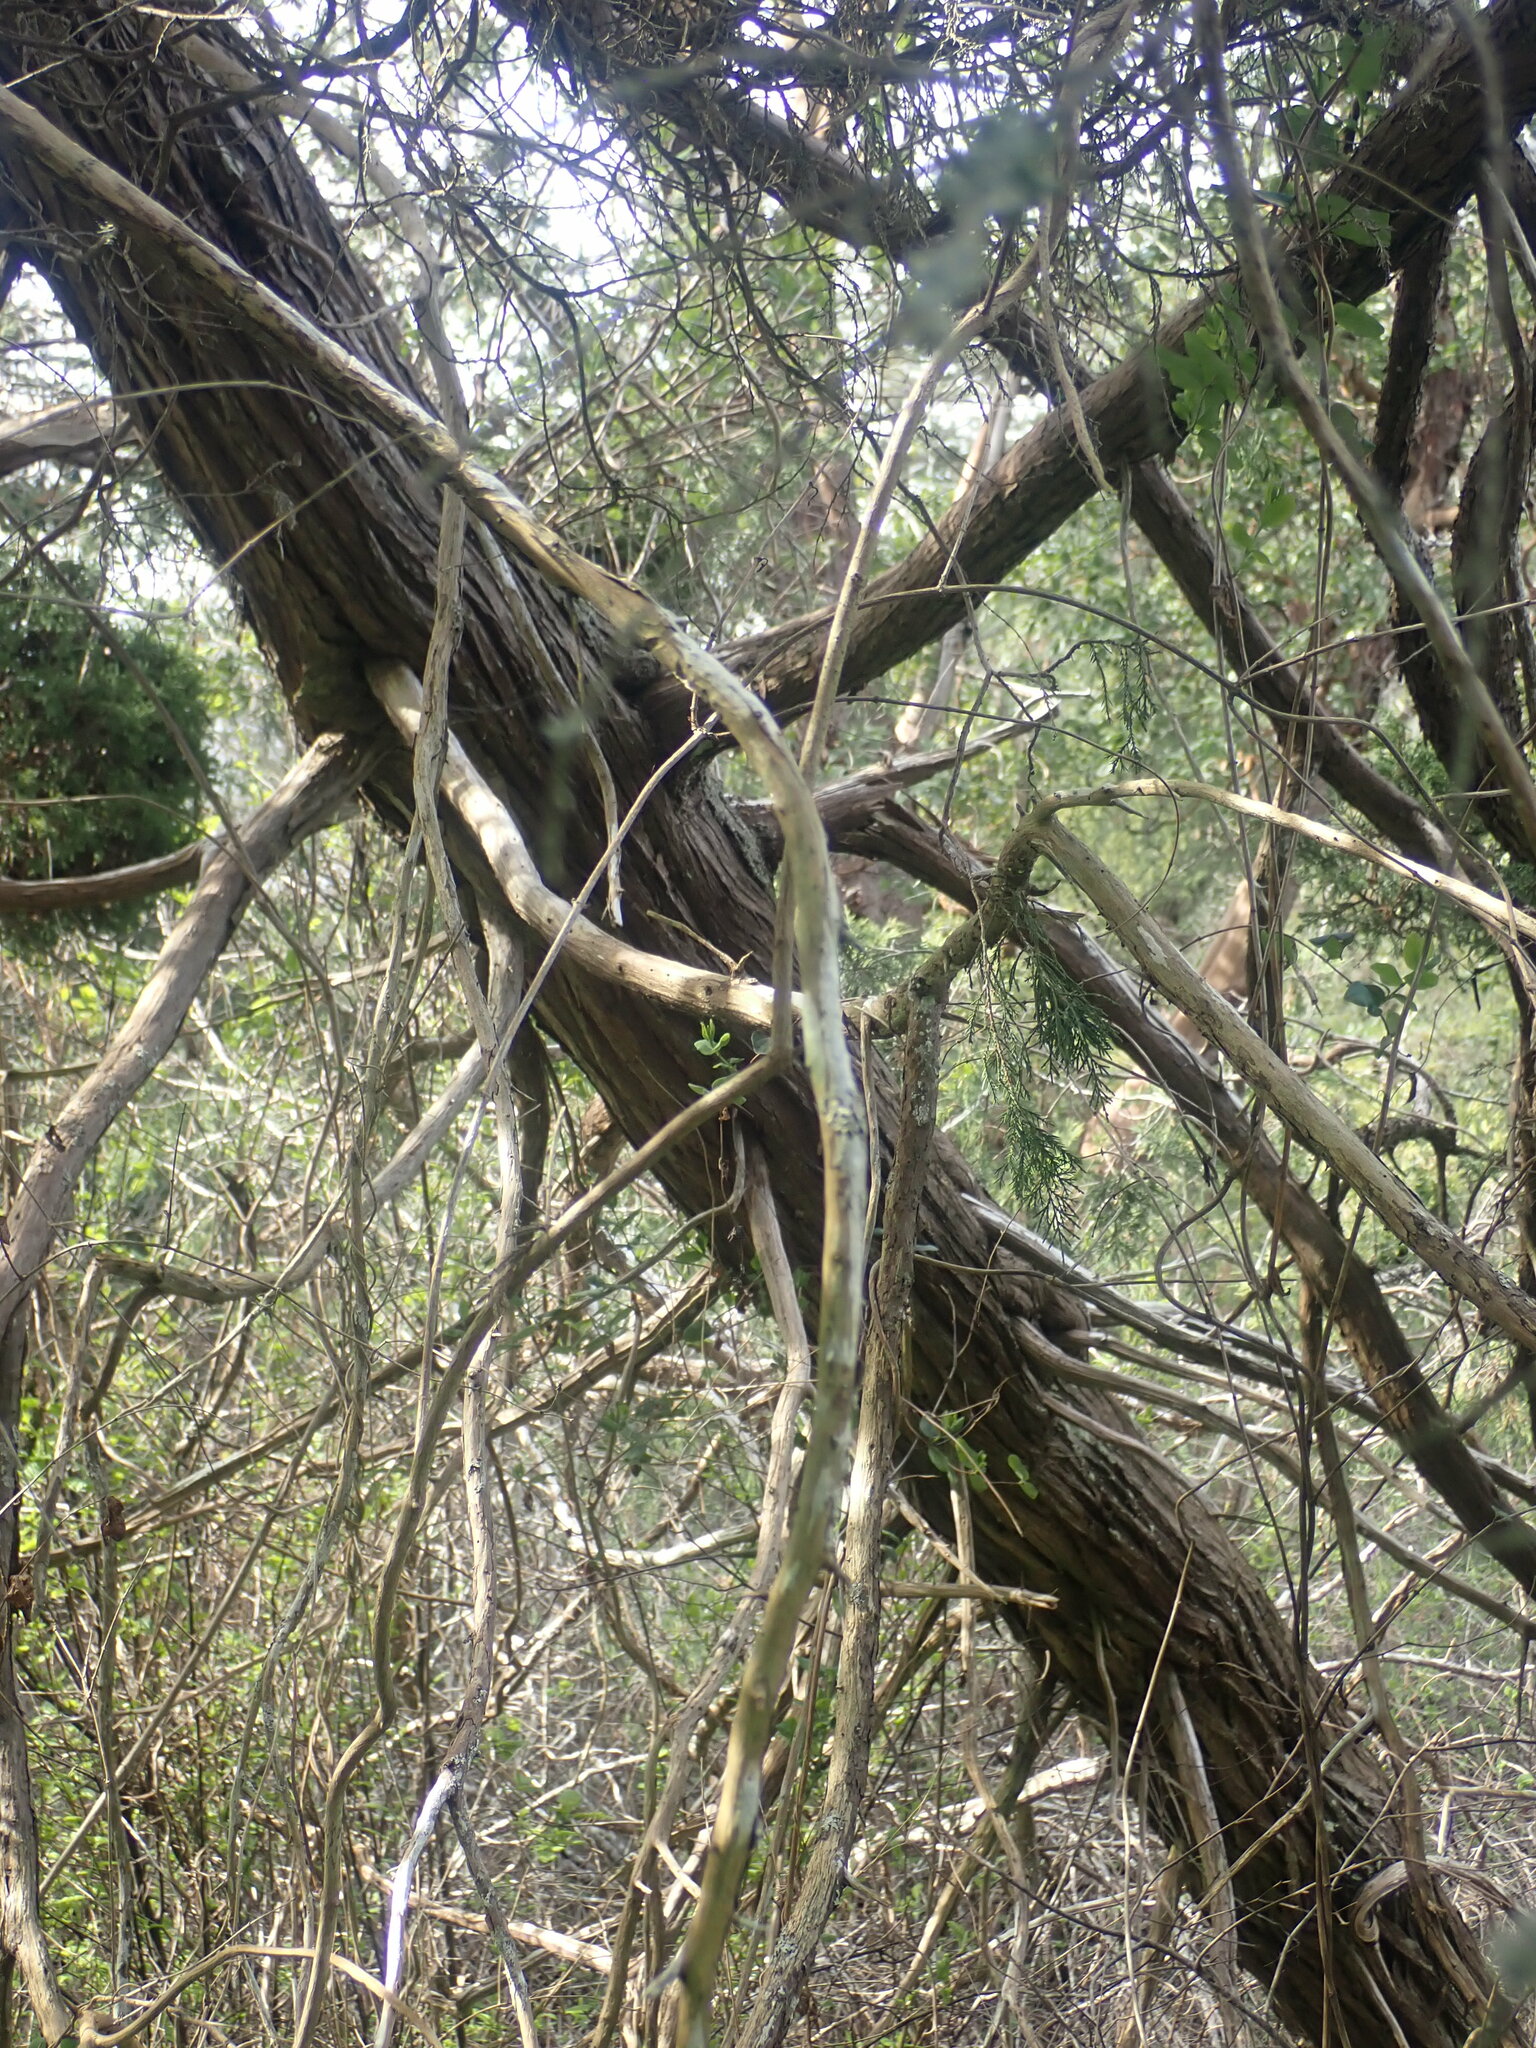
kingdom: Plantae
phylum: Tracheophyta
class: Pinopsida
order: Pinales
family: Cupressaceae
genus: Juniperus
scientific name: Juniperus scopulorum
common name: Rocky mountain juniper
